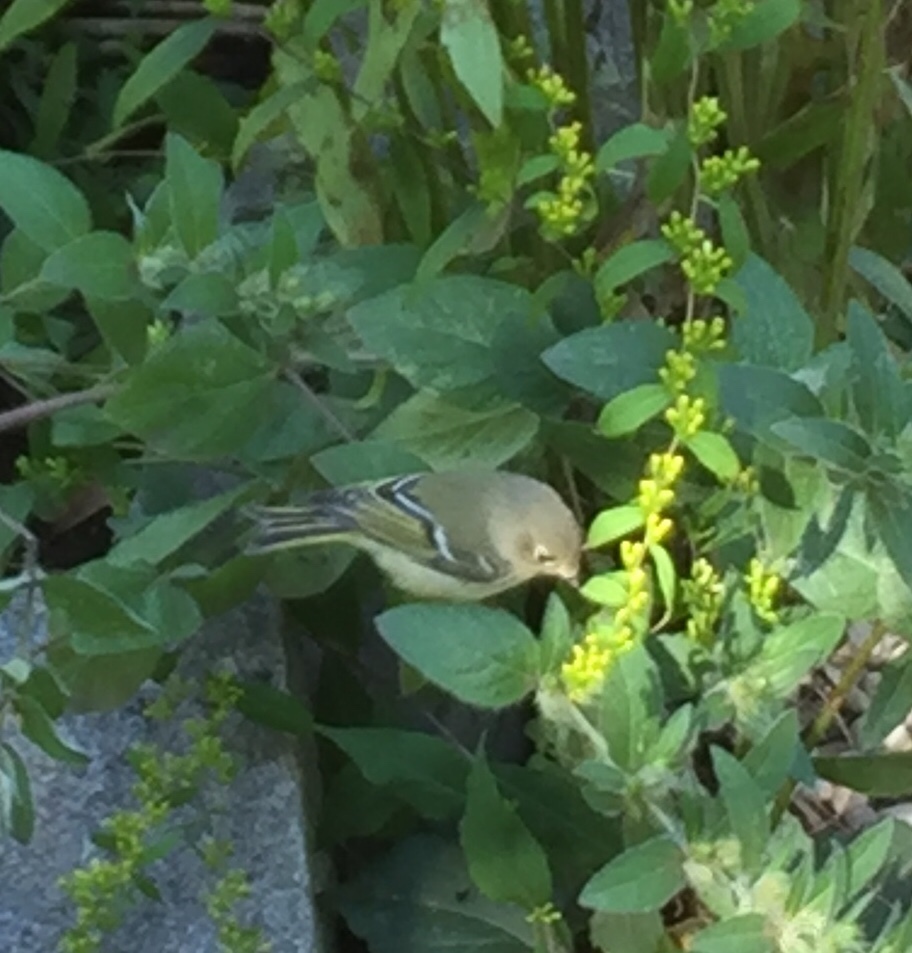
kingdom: Animalia
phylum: Chordata
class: Aves
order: Passeriformes
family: Regulidae
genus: Regulus
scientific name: Regulus calendula
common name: Ruby-crowned kinglet
